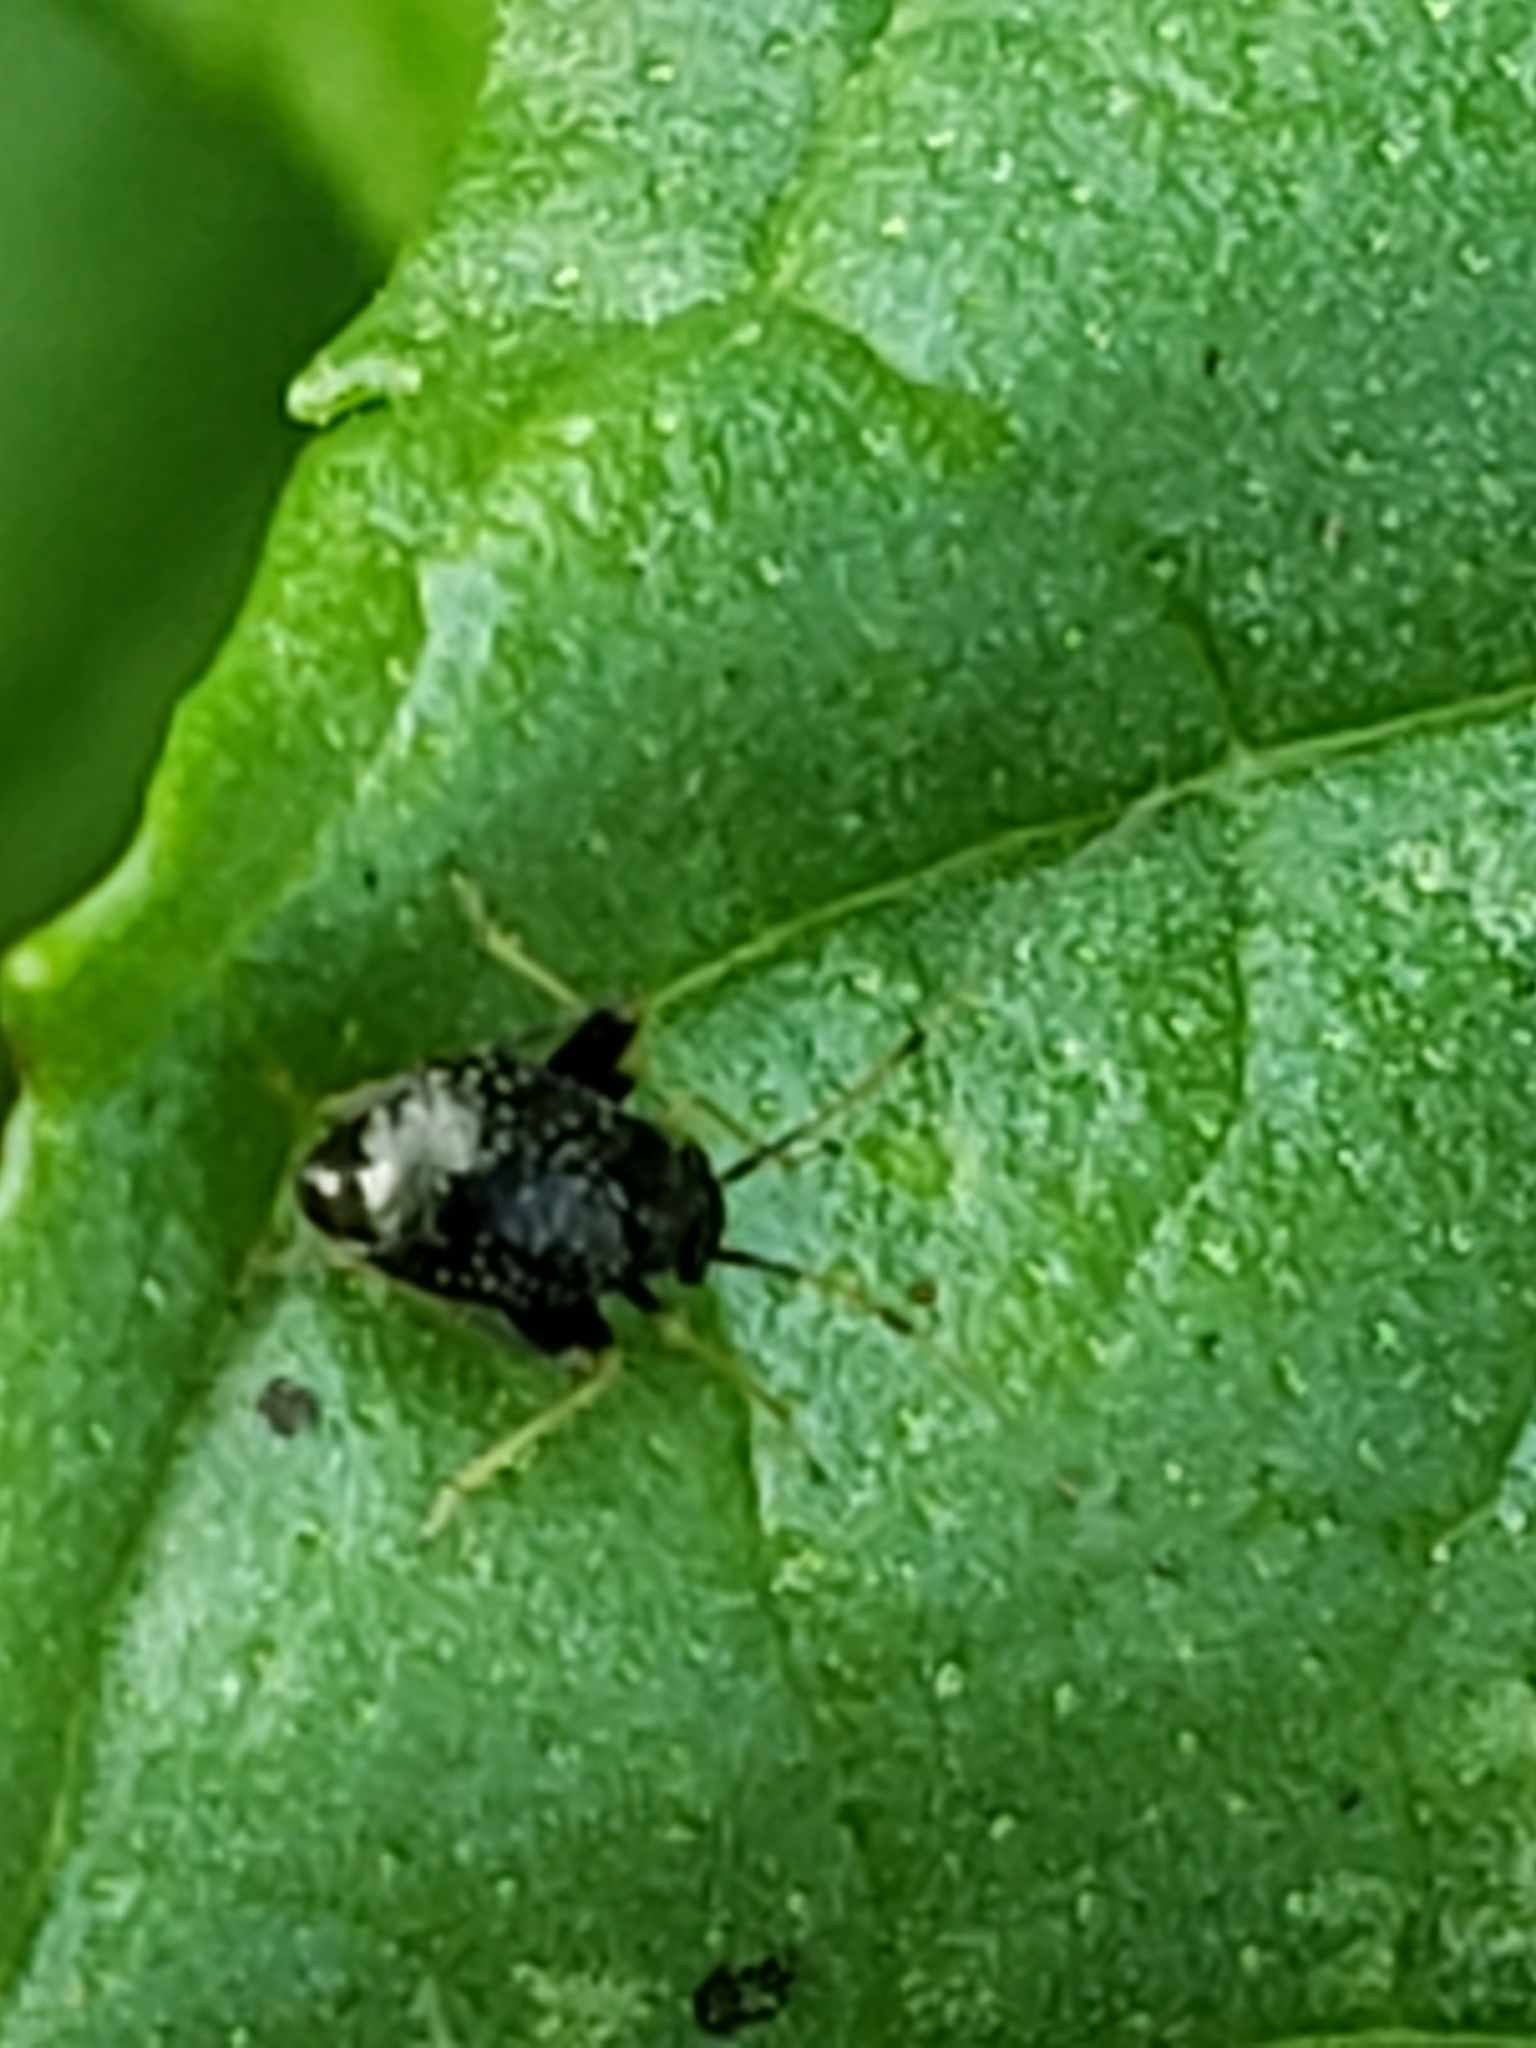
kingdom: Animalia
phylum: Arthropoda
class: Insecta
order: Hemiptera
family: Miridae
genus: Microtechnites
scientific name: Microtechnites bractatus
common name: Garden fleahopper
